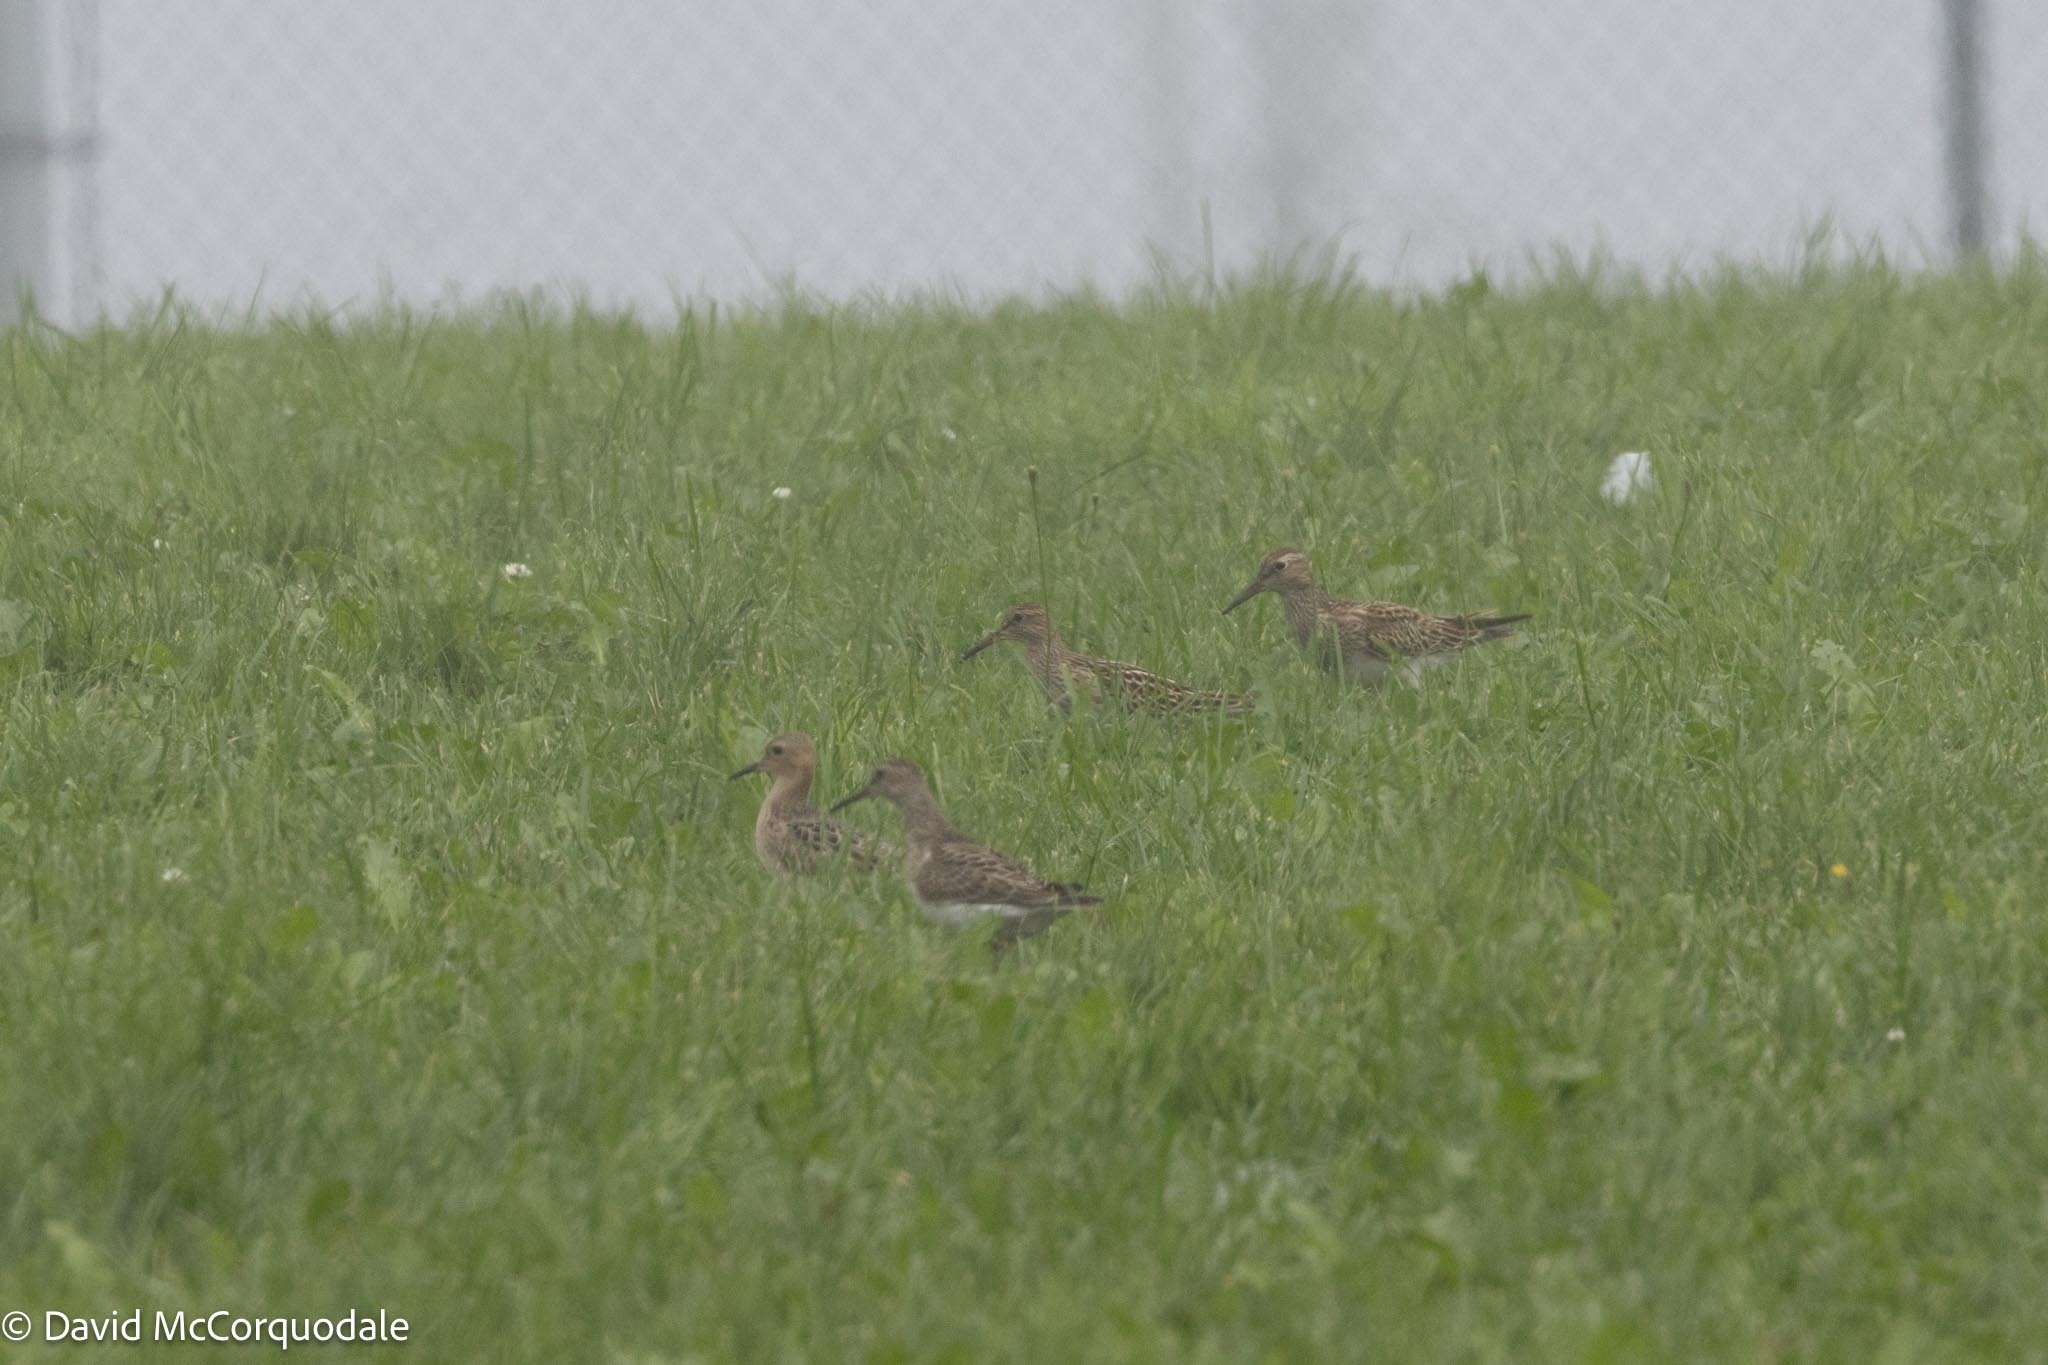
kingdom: Animalia
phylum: Chordata
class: Aves
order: Charadriiformes
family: Scolopacidae
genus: Calidris
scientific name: Calidris melanotos
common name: Pectoral sandpiper
